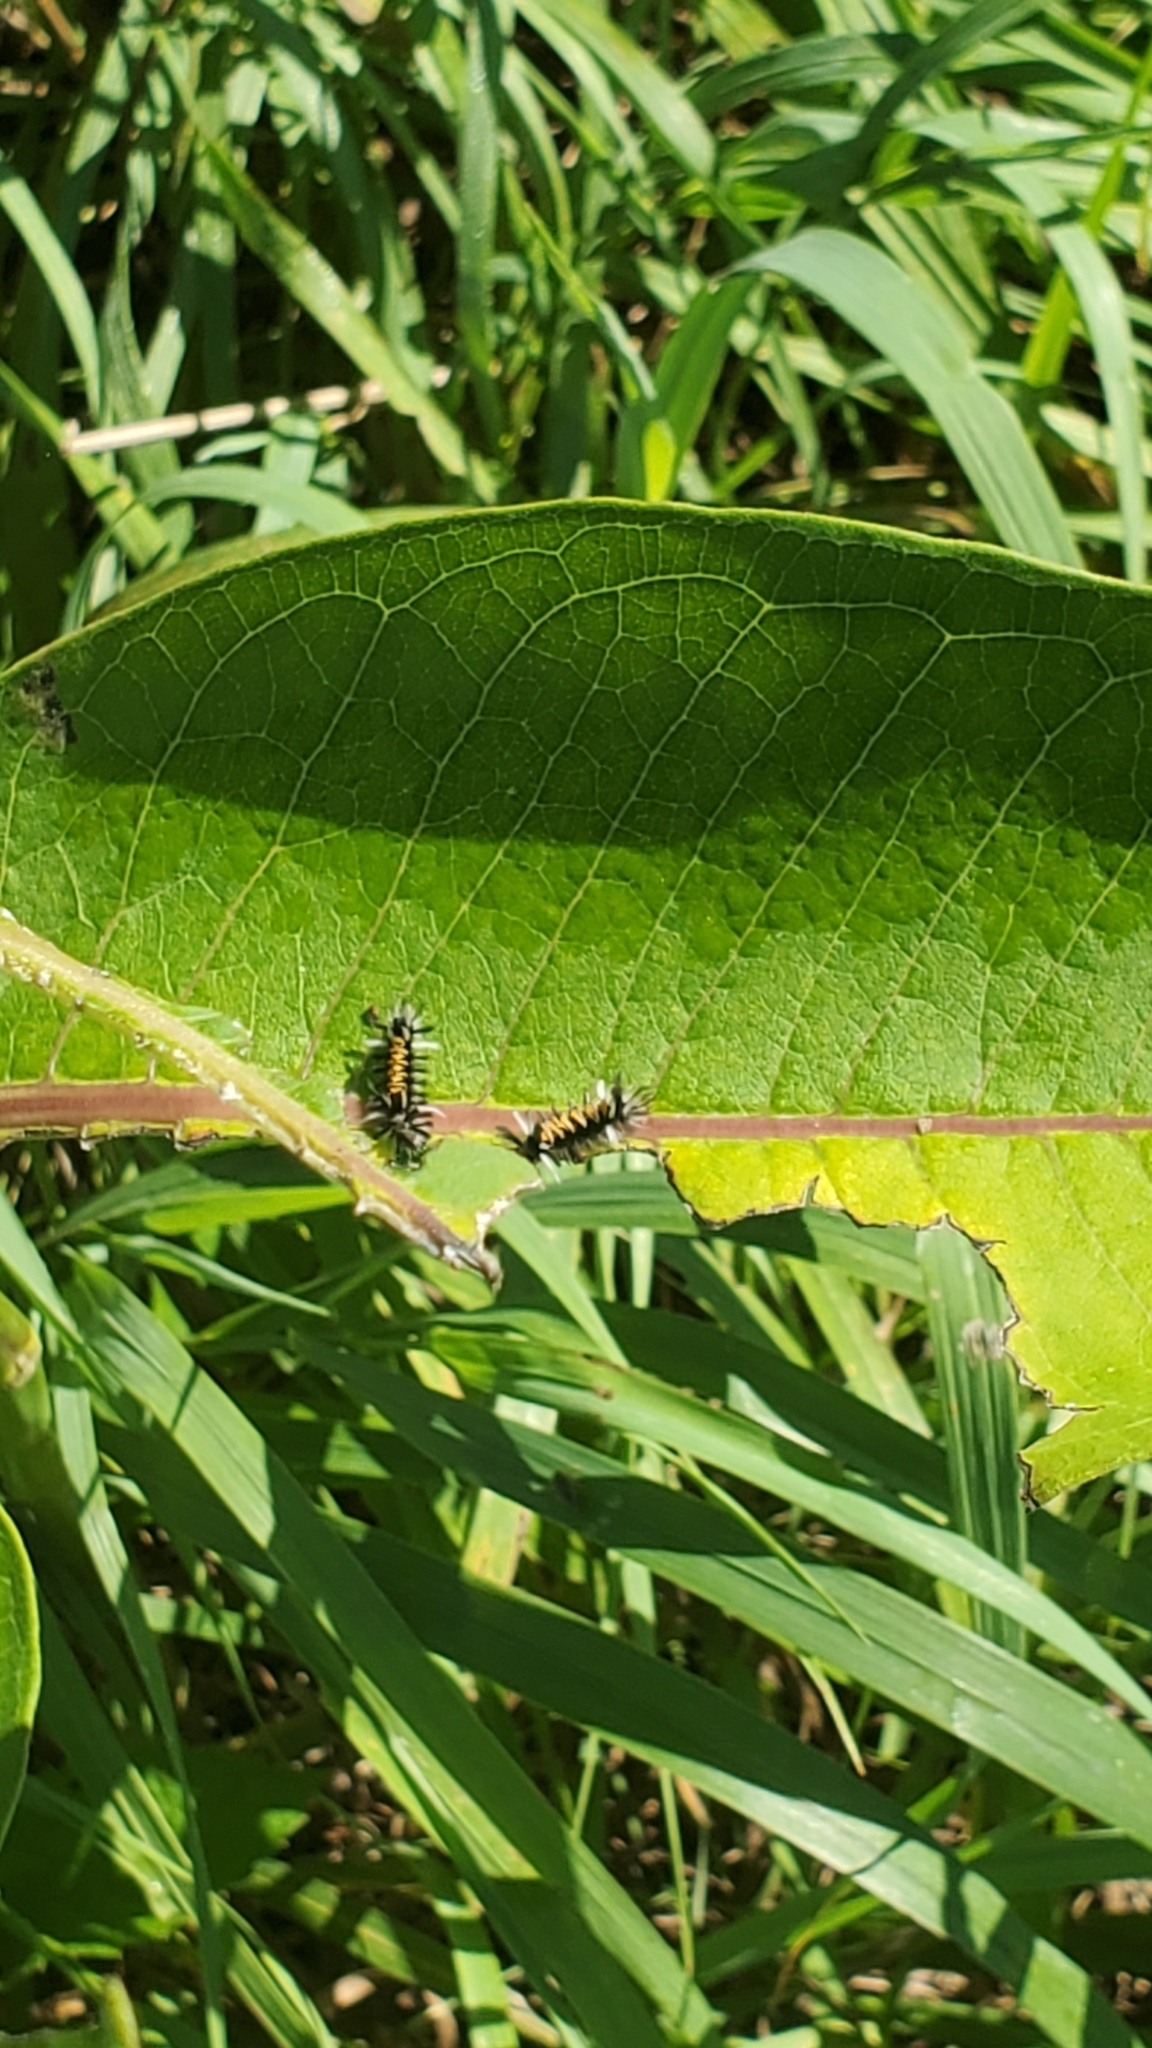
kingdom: Animalia
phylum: Arthropoda
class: Insecta
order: Lepidoptera
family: Erebidae
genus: Euchaetes
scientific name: Euchaetes egle
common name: Milkweed tussock moth
